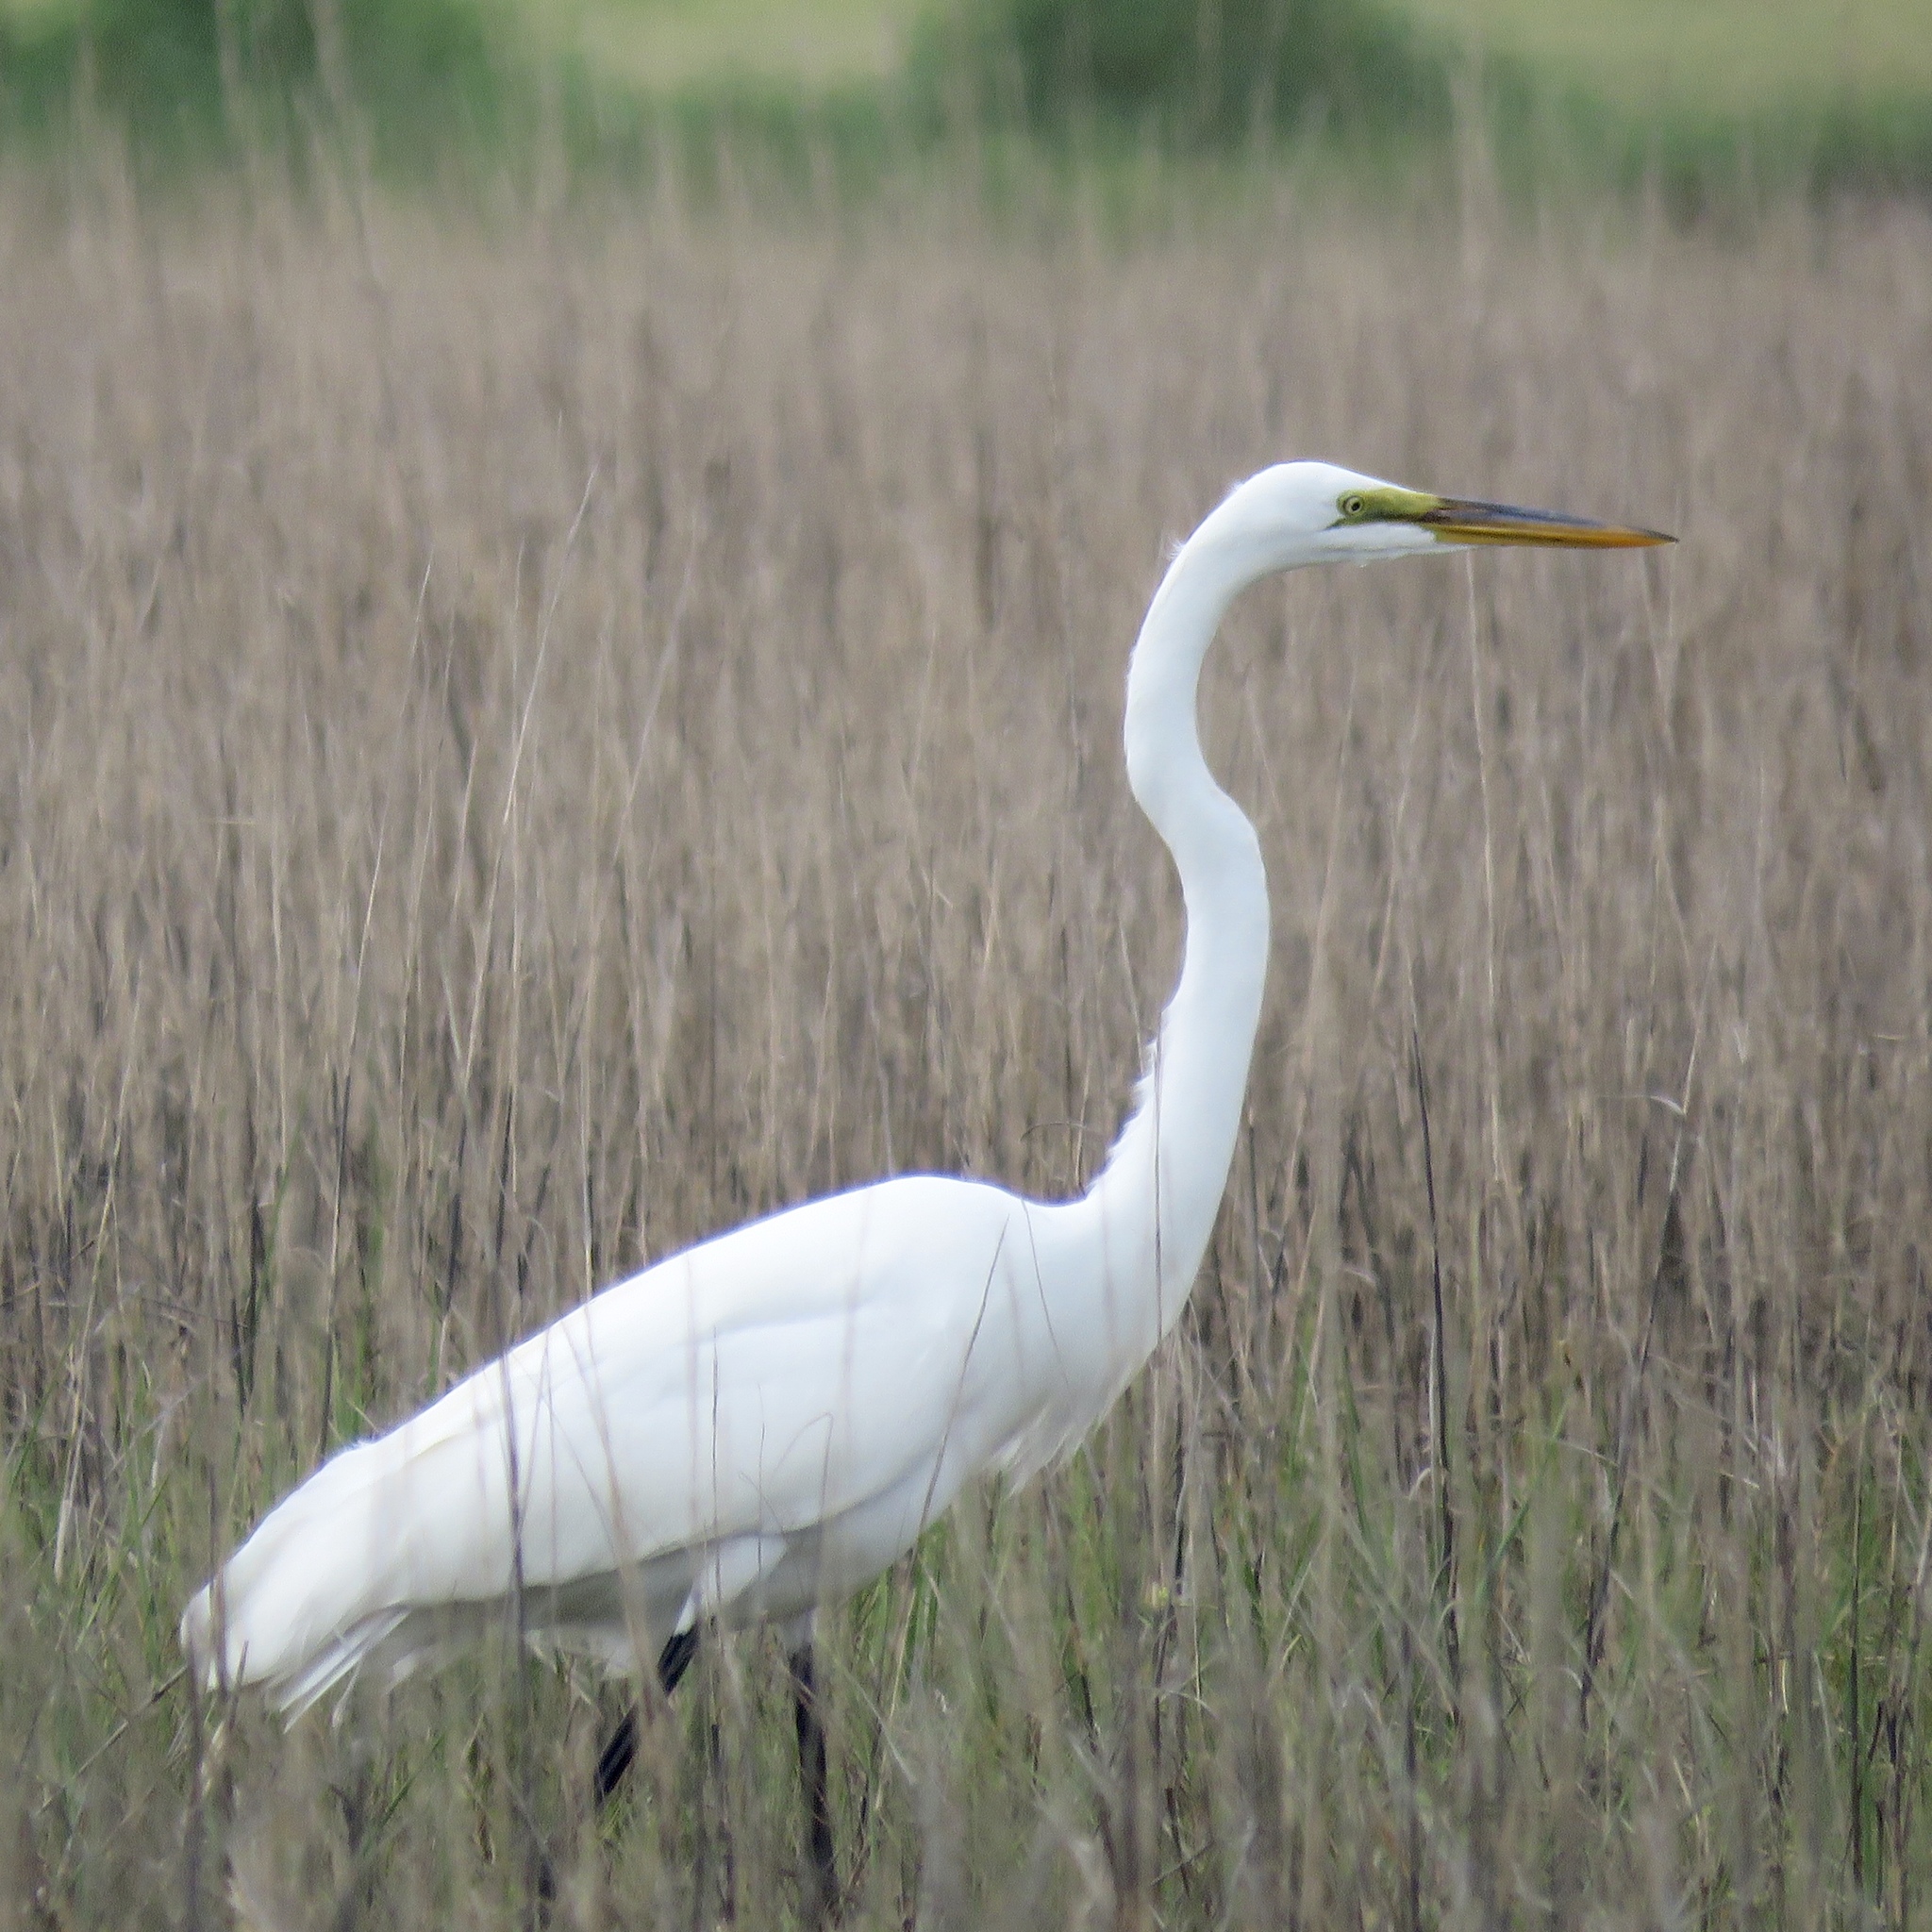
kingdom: Animalia
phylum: Chordata
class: Aves
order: Pelecaniformes
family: Ardeidae
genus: Ardea
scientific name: Ardea alba
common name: Great egret
